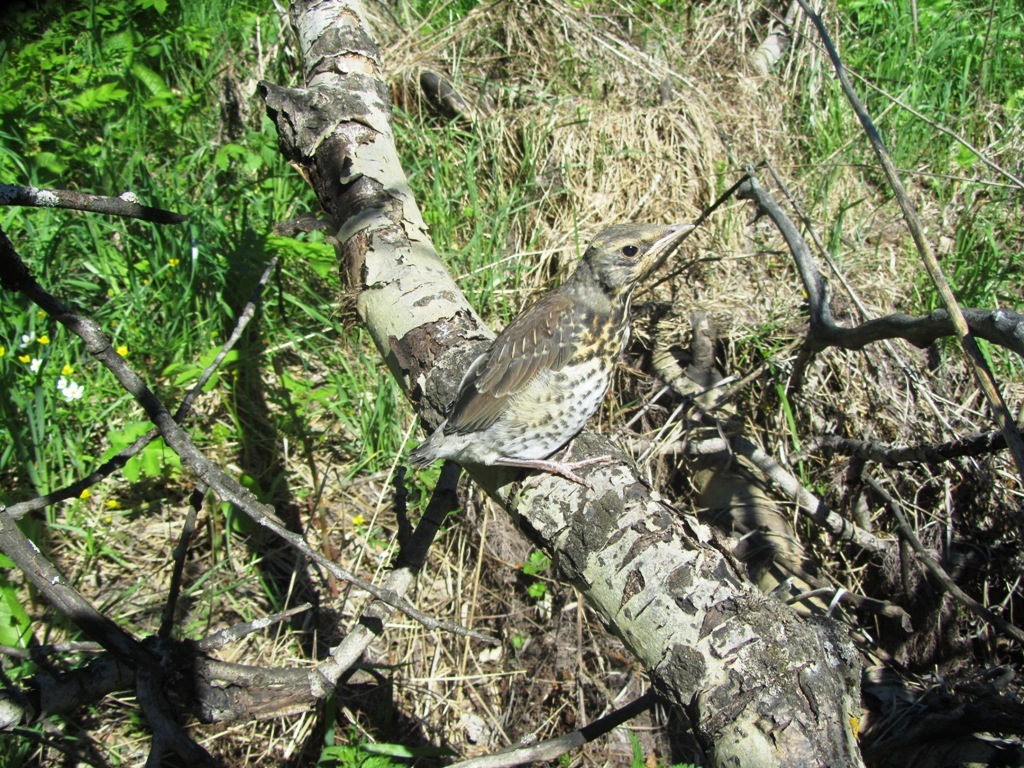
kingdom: Animalia
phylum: Chordata
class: Aves
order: Passeriformes
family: Turdidae
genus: Turdus
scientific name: Turdus pilaris
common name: Fieldfare
